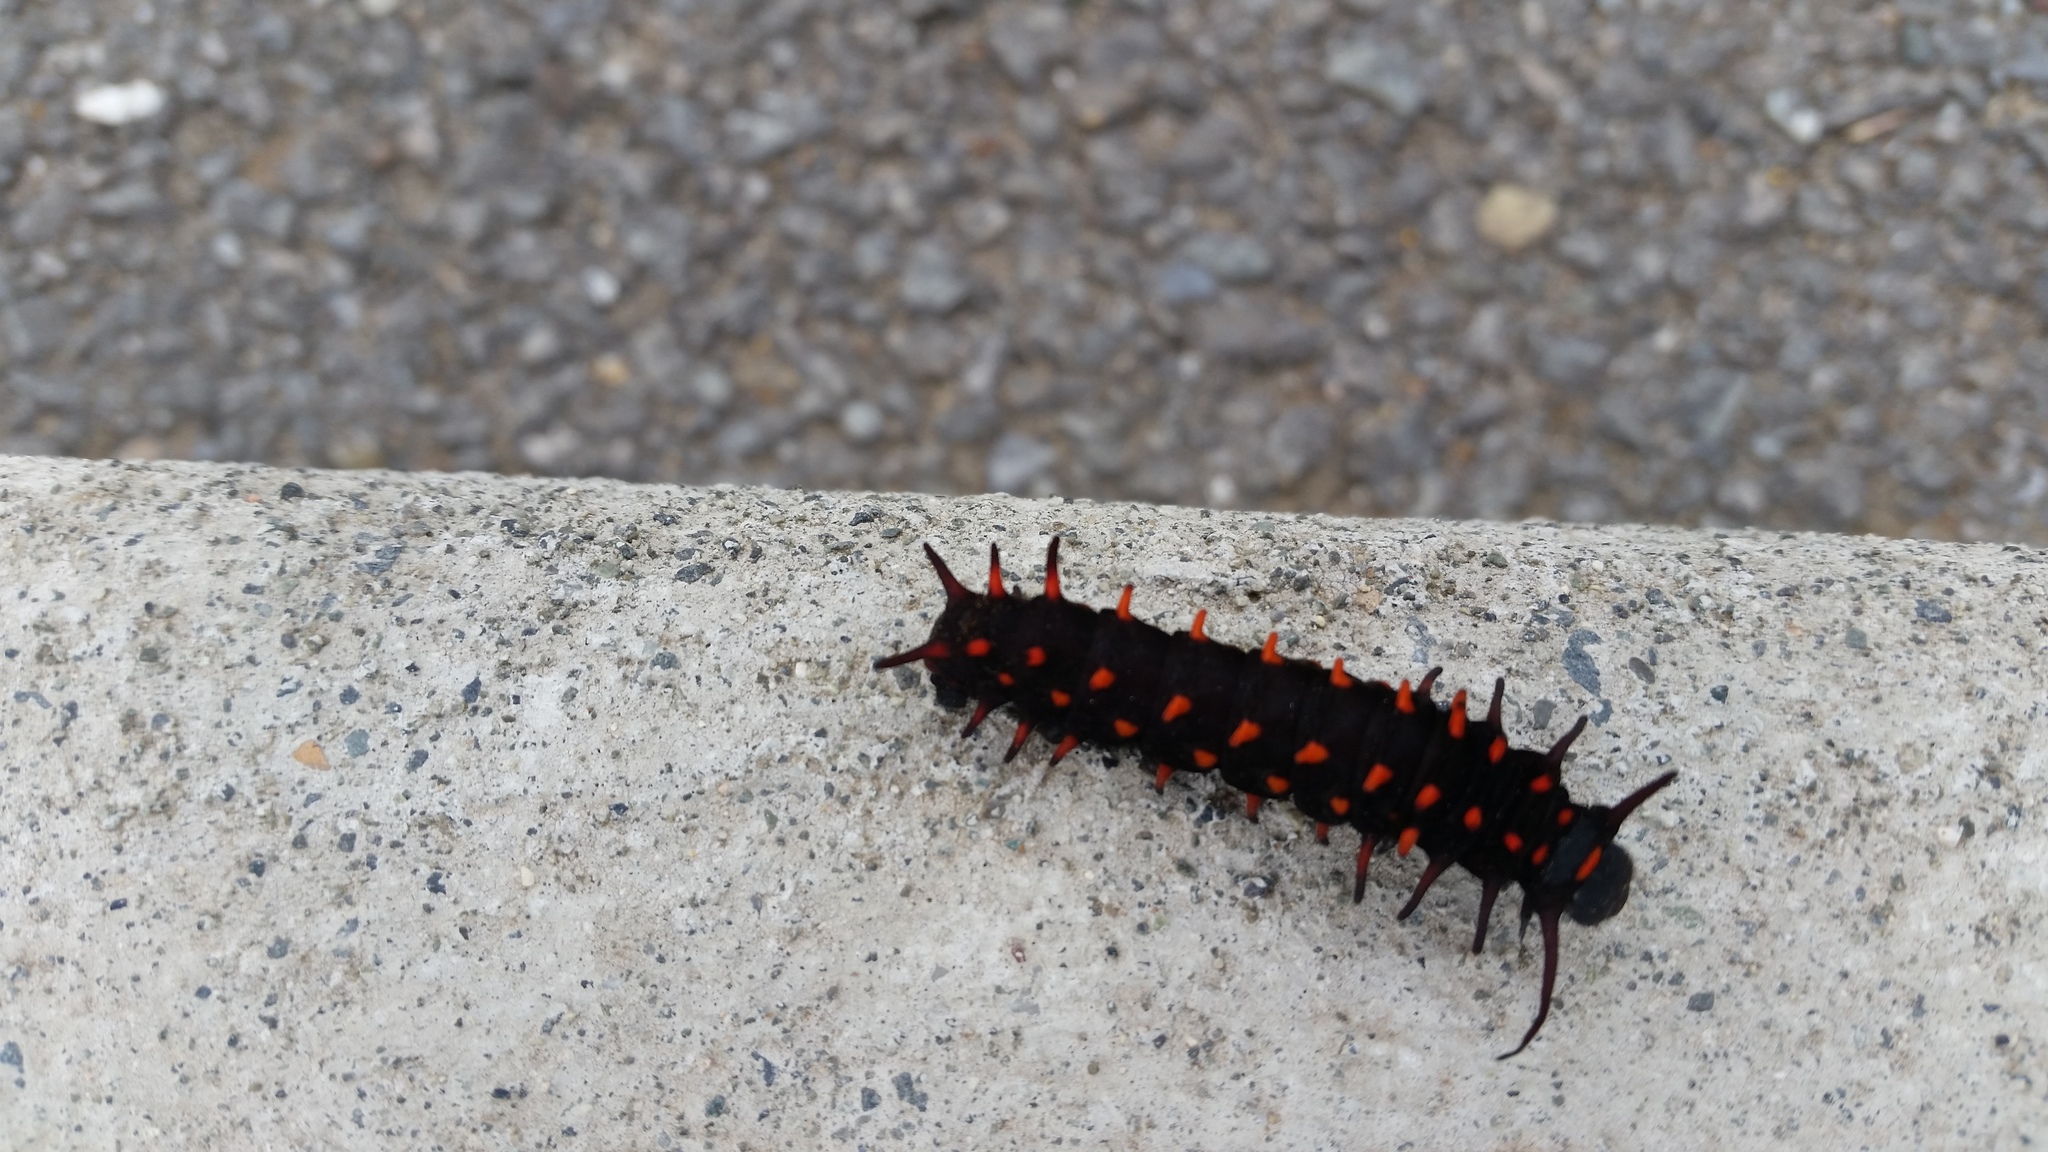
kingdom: Animalia
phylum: Arthropoda
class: Insecta
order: Lepidoptera
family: Papilionidae
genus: Battus
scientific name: Battus philenor
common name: Pipevine swallowtail
